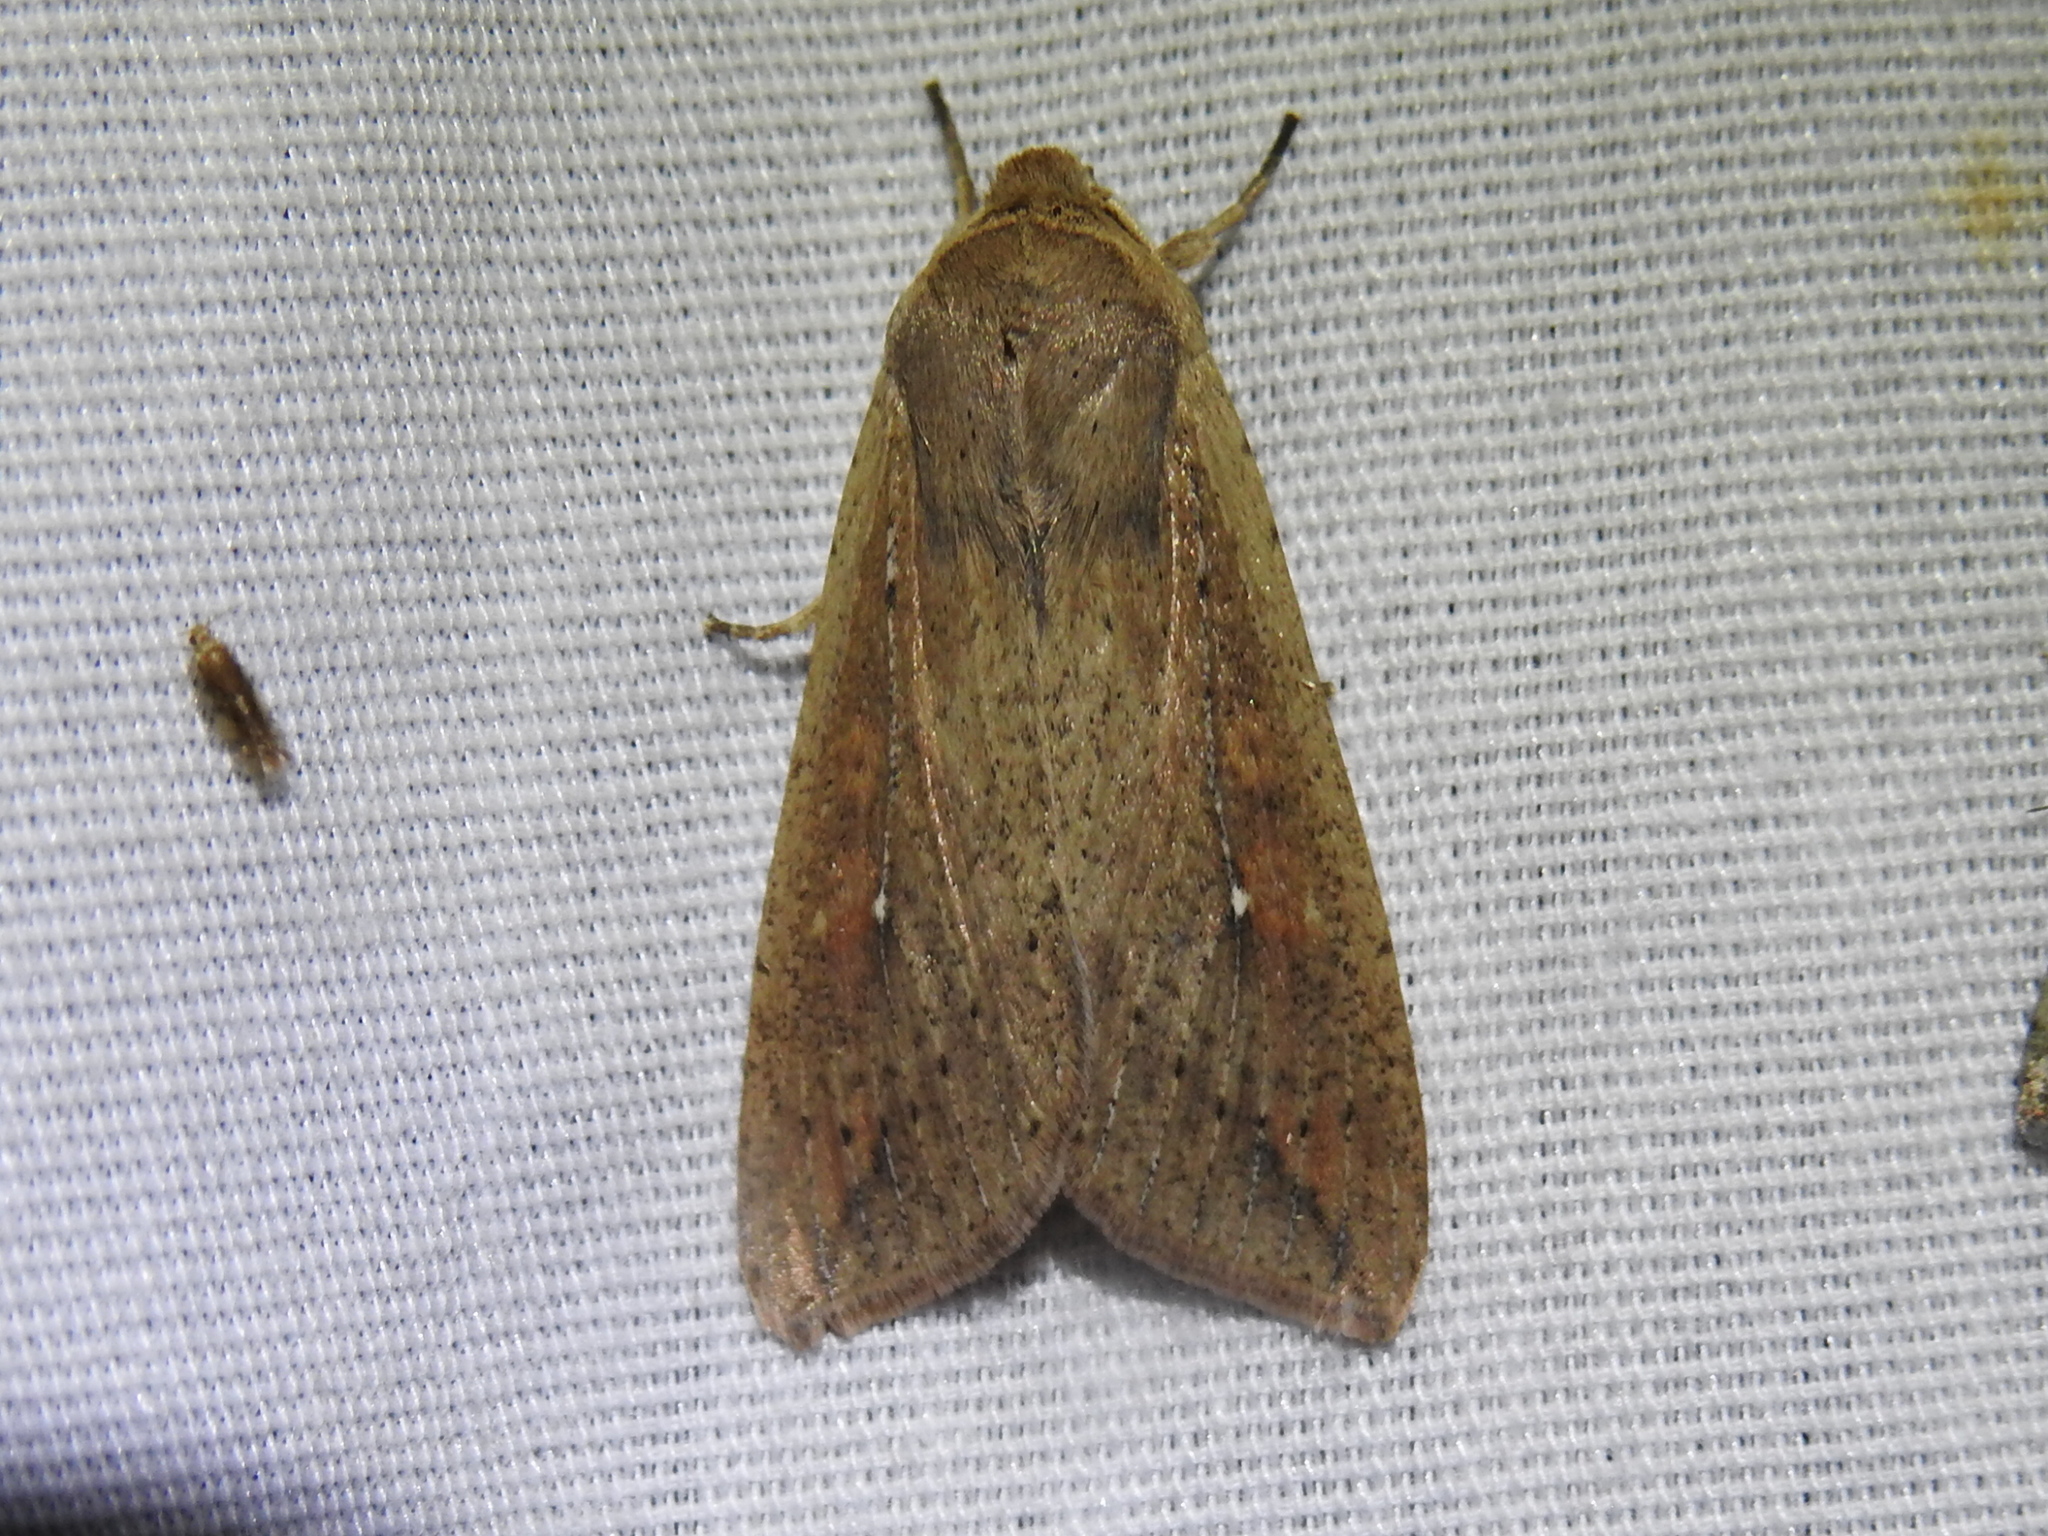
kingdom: Animalia
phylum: Arthropoda
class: Insecta
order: Lepidoptera
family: Noctuidae
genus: Mythimna
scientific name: Mythimna unipuncta
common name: White-speck
